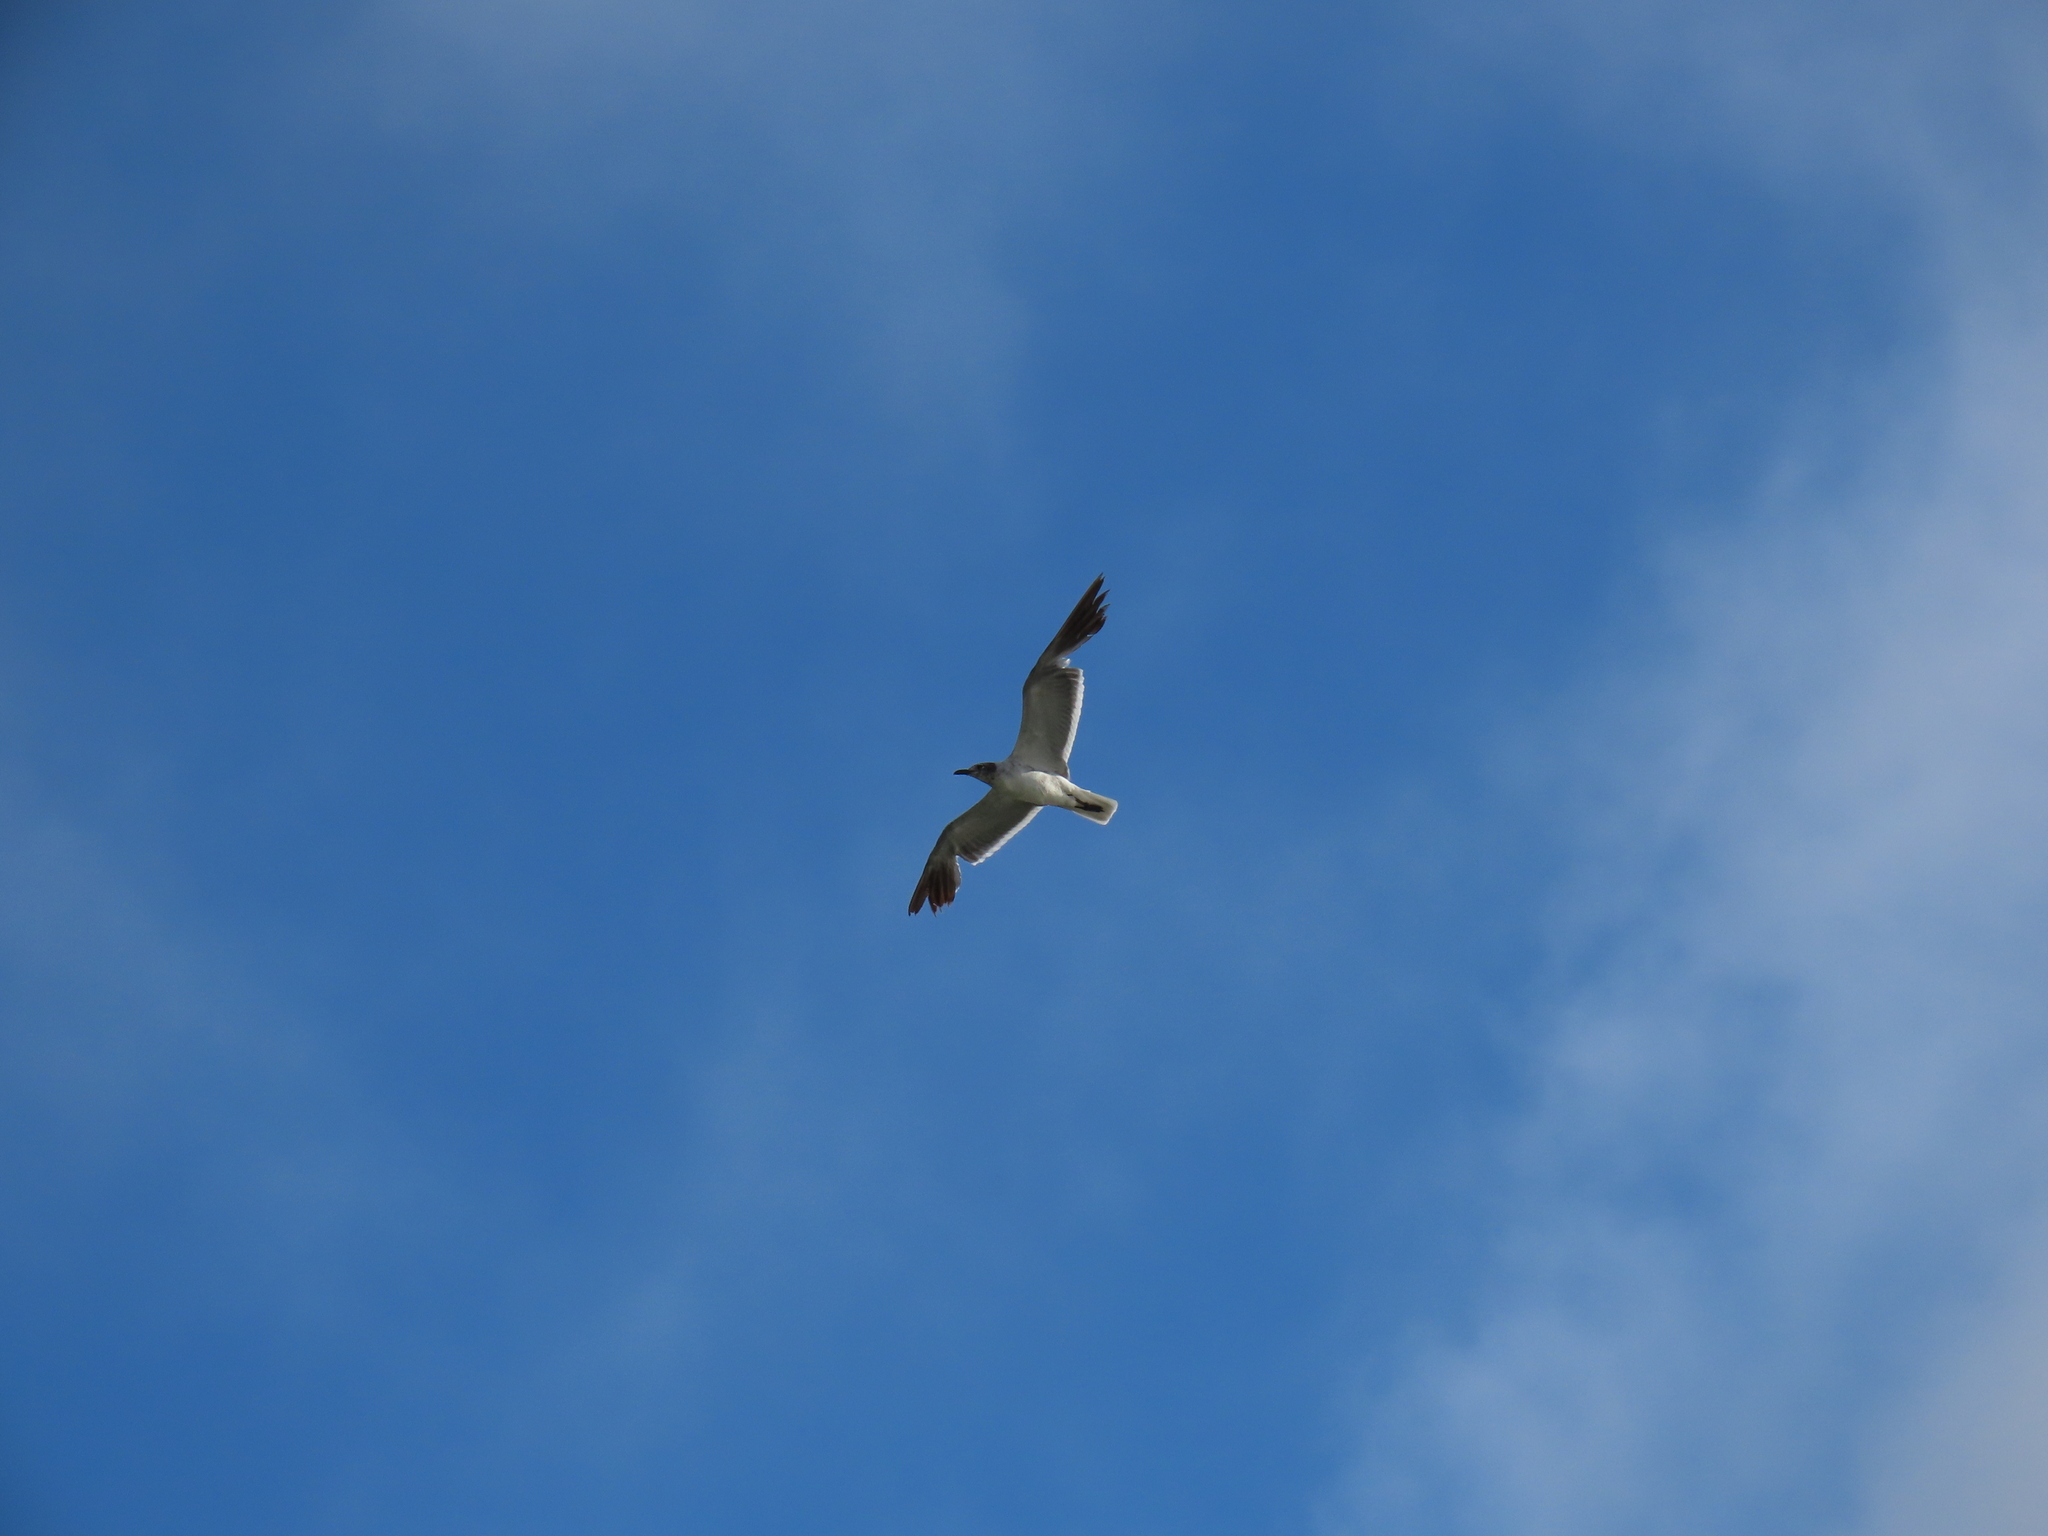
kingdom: Animalia
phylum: Chordata
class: Aves
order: Charadriiformes
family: Laridae
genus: Leucophaeus
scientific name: Leucophaeus atricilla
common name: Laughing gull
